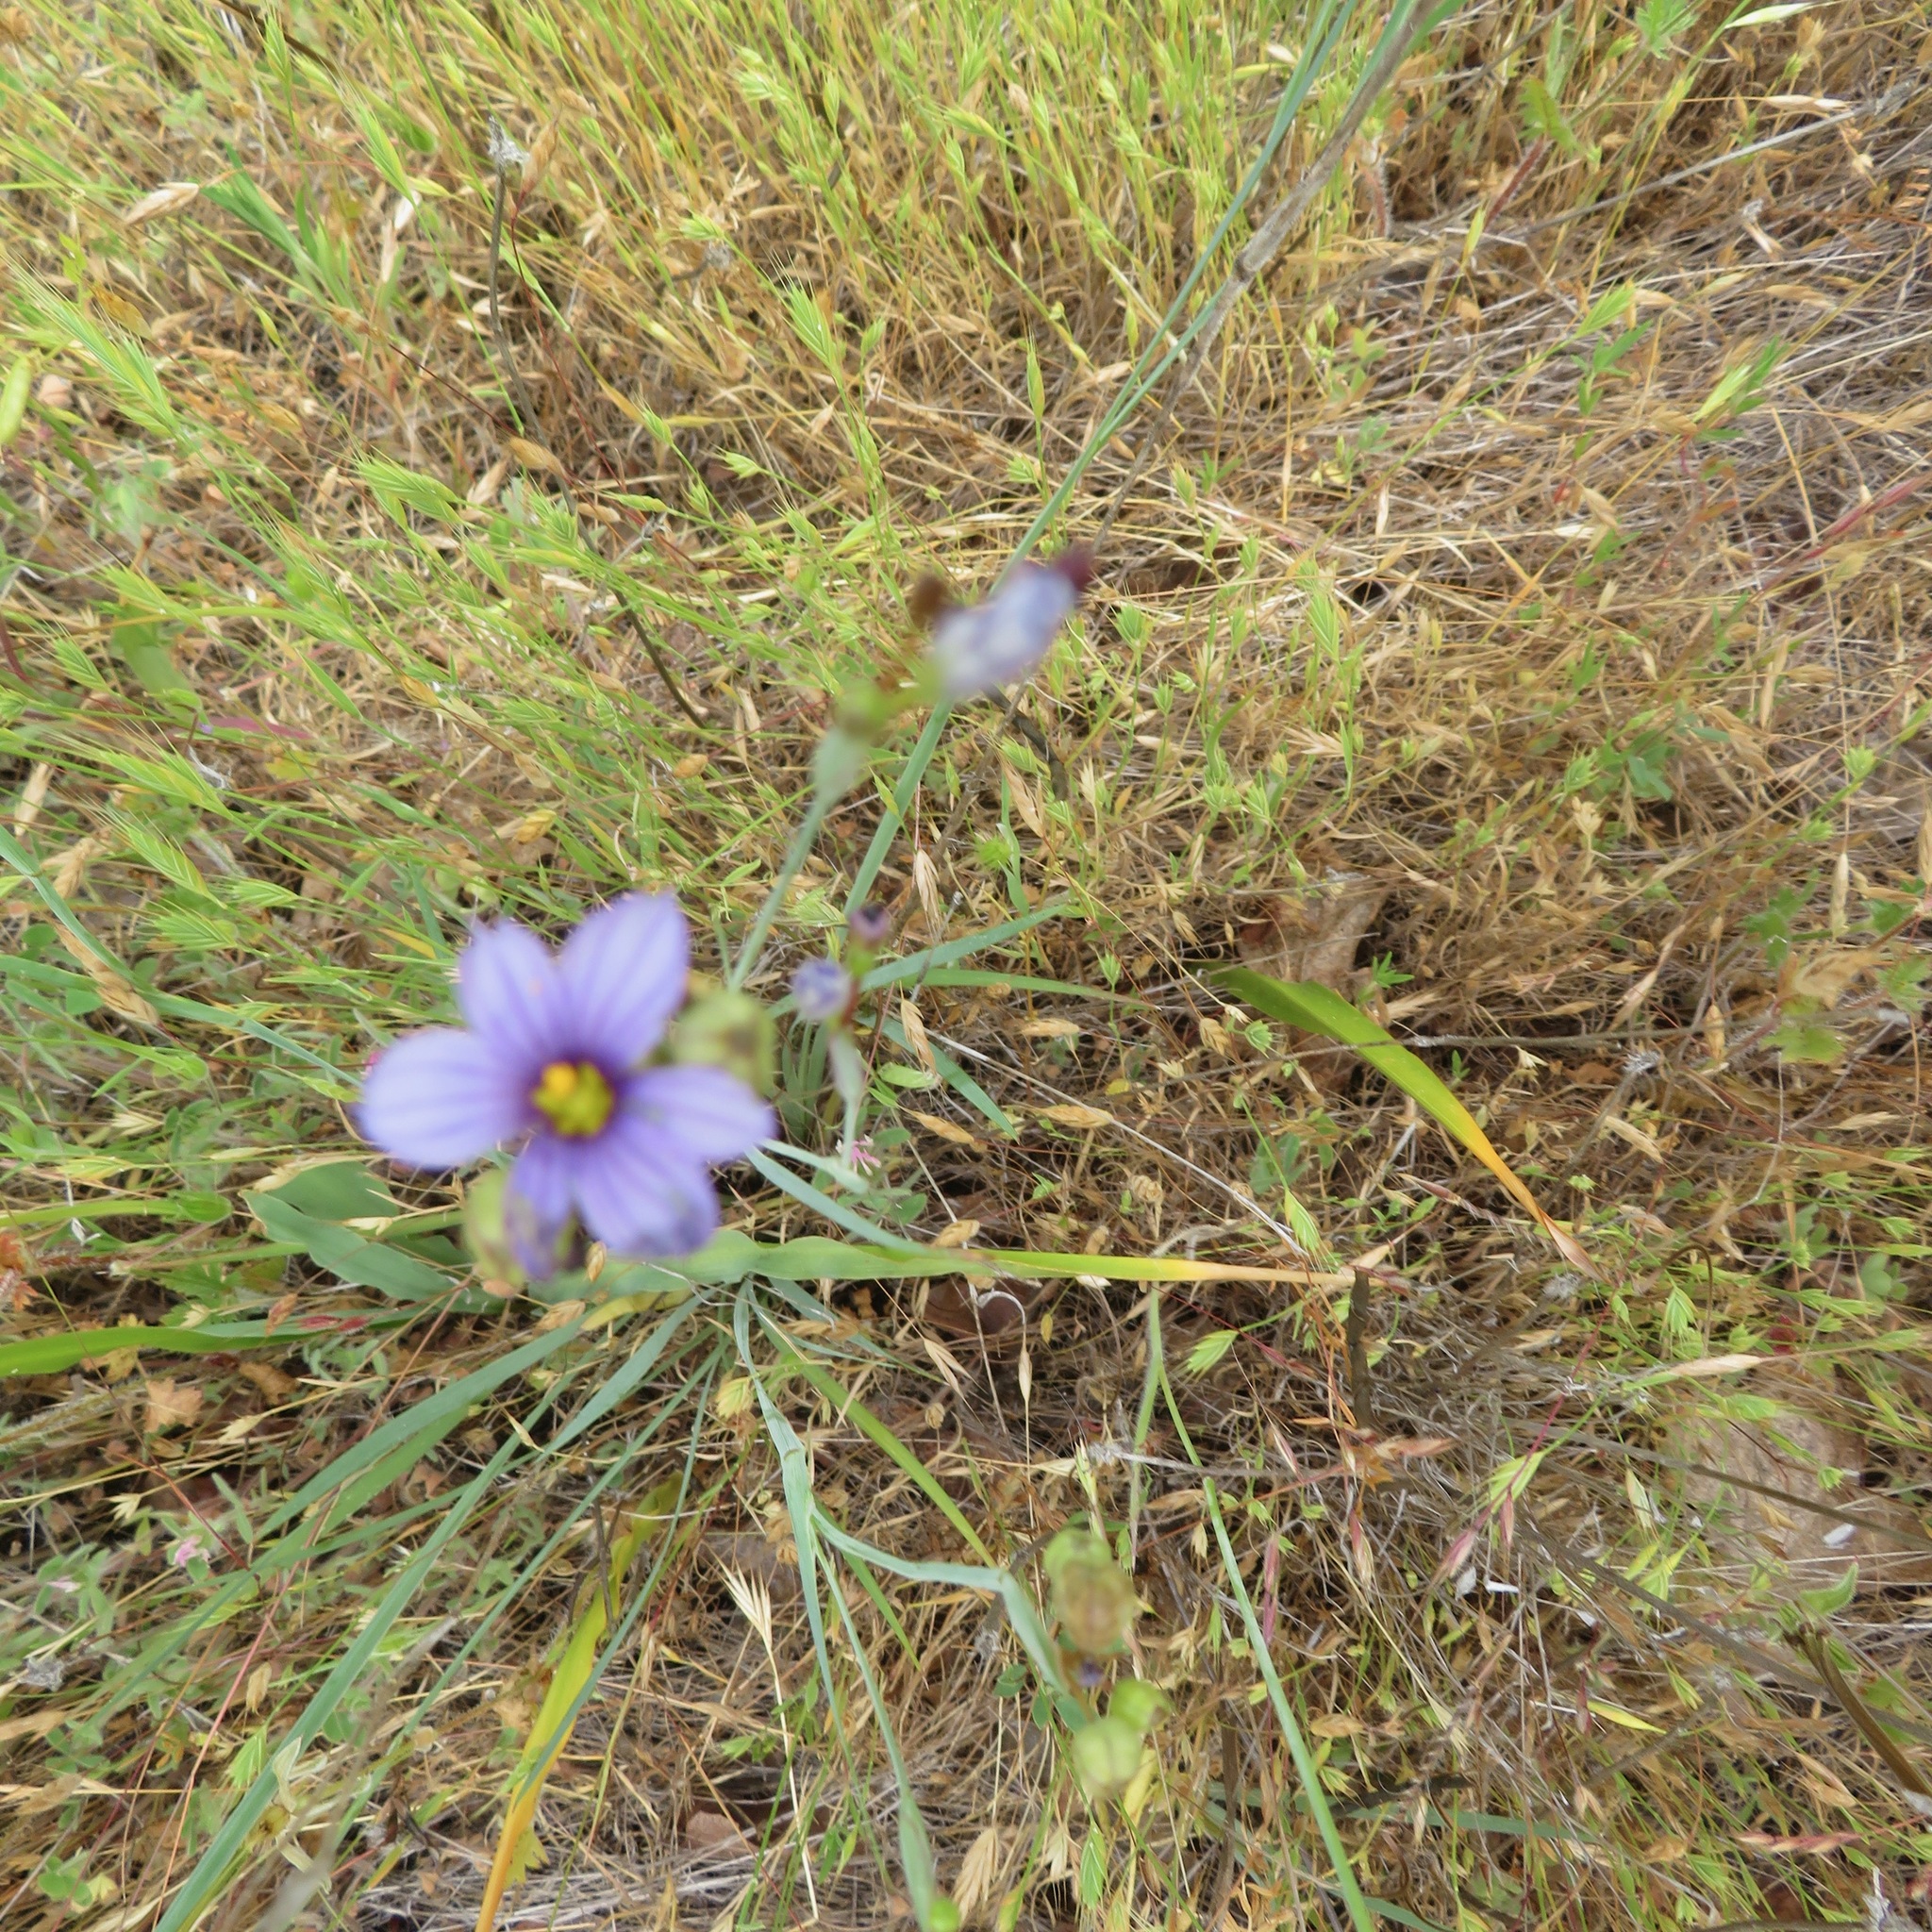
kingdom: Plantae
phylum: Tracheophyta
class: Liliopsida
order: Asparagales
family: Iridaceae
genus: Sisyrinchium
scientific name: Sisyrinchium bellum
